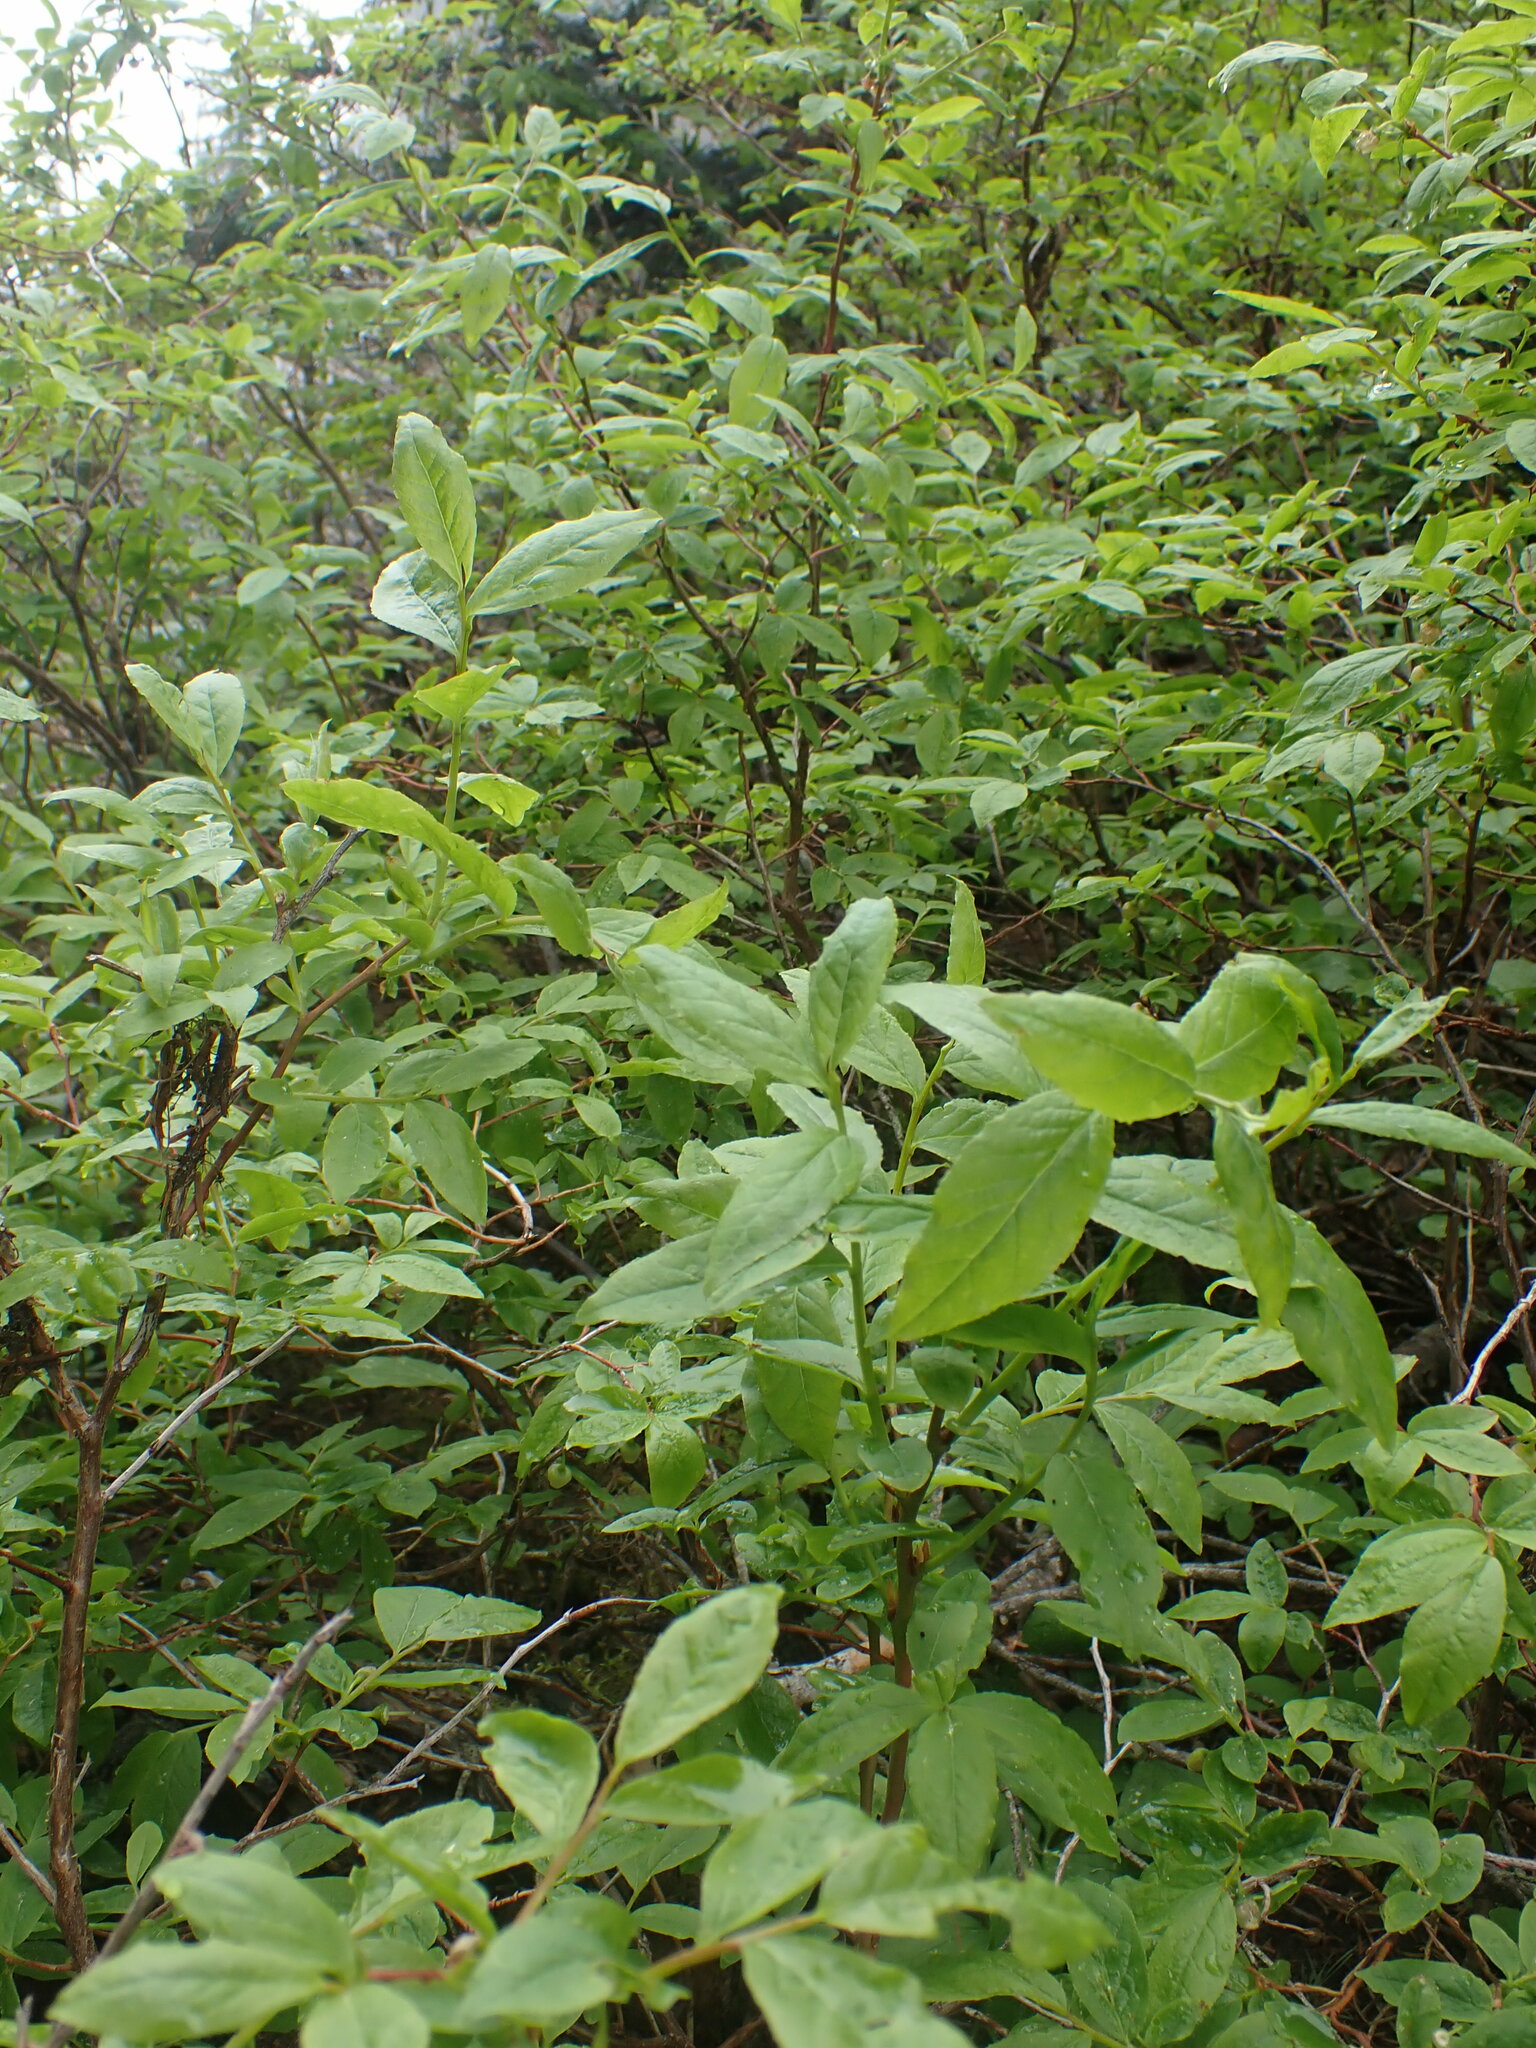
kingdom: Plantae
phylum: Tracheophyta
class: Magnoliopsida
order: Ericales
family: Ericaceae
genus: Vaccinium
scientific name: Vaccinium membranaceum
